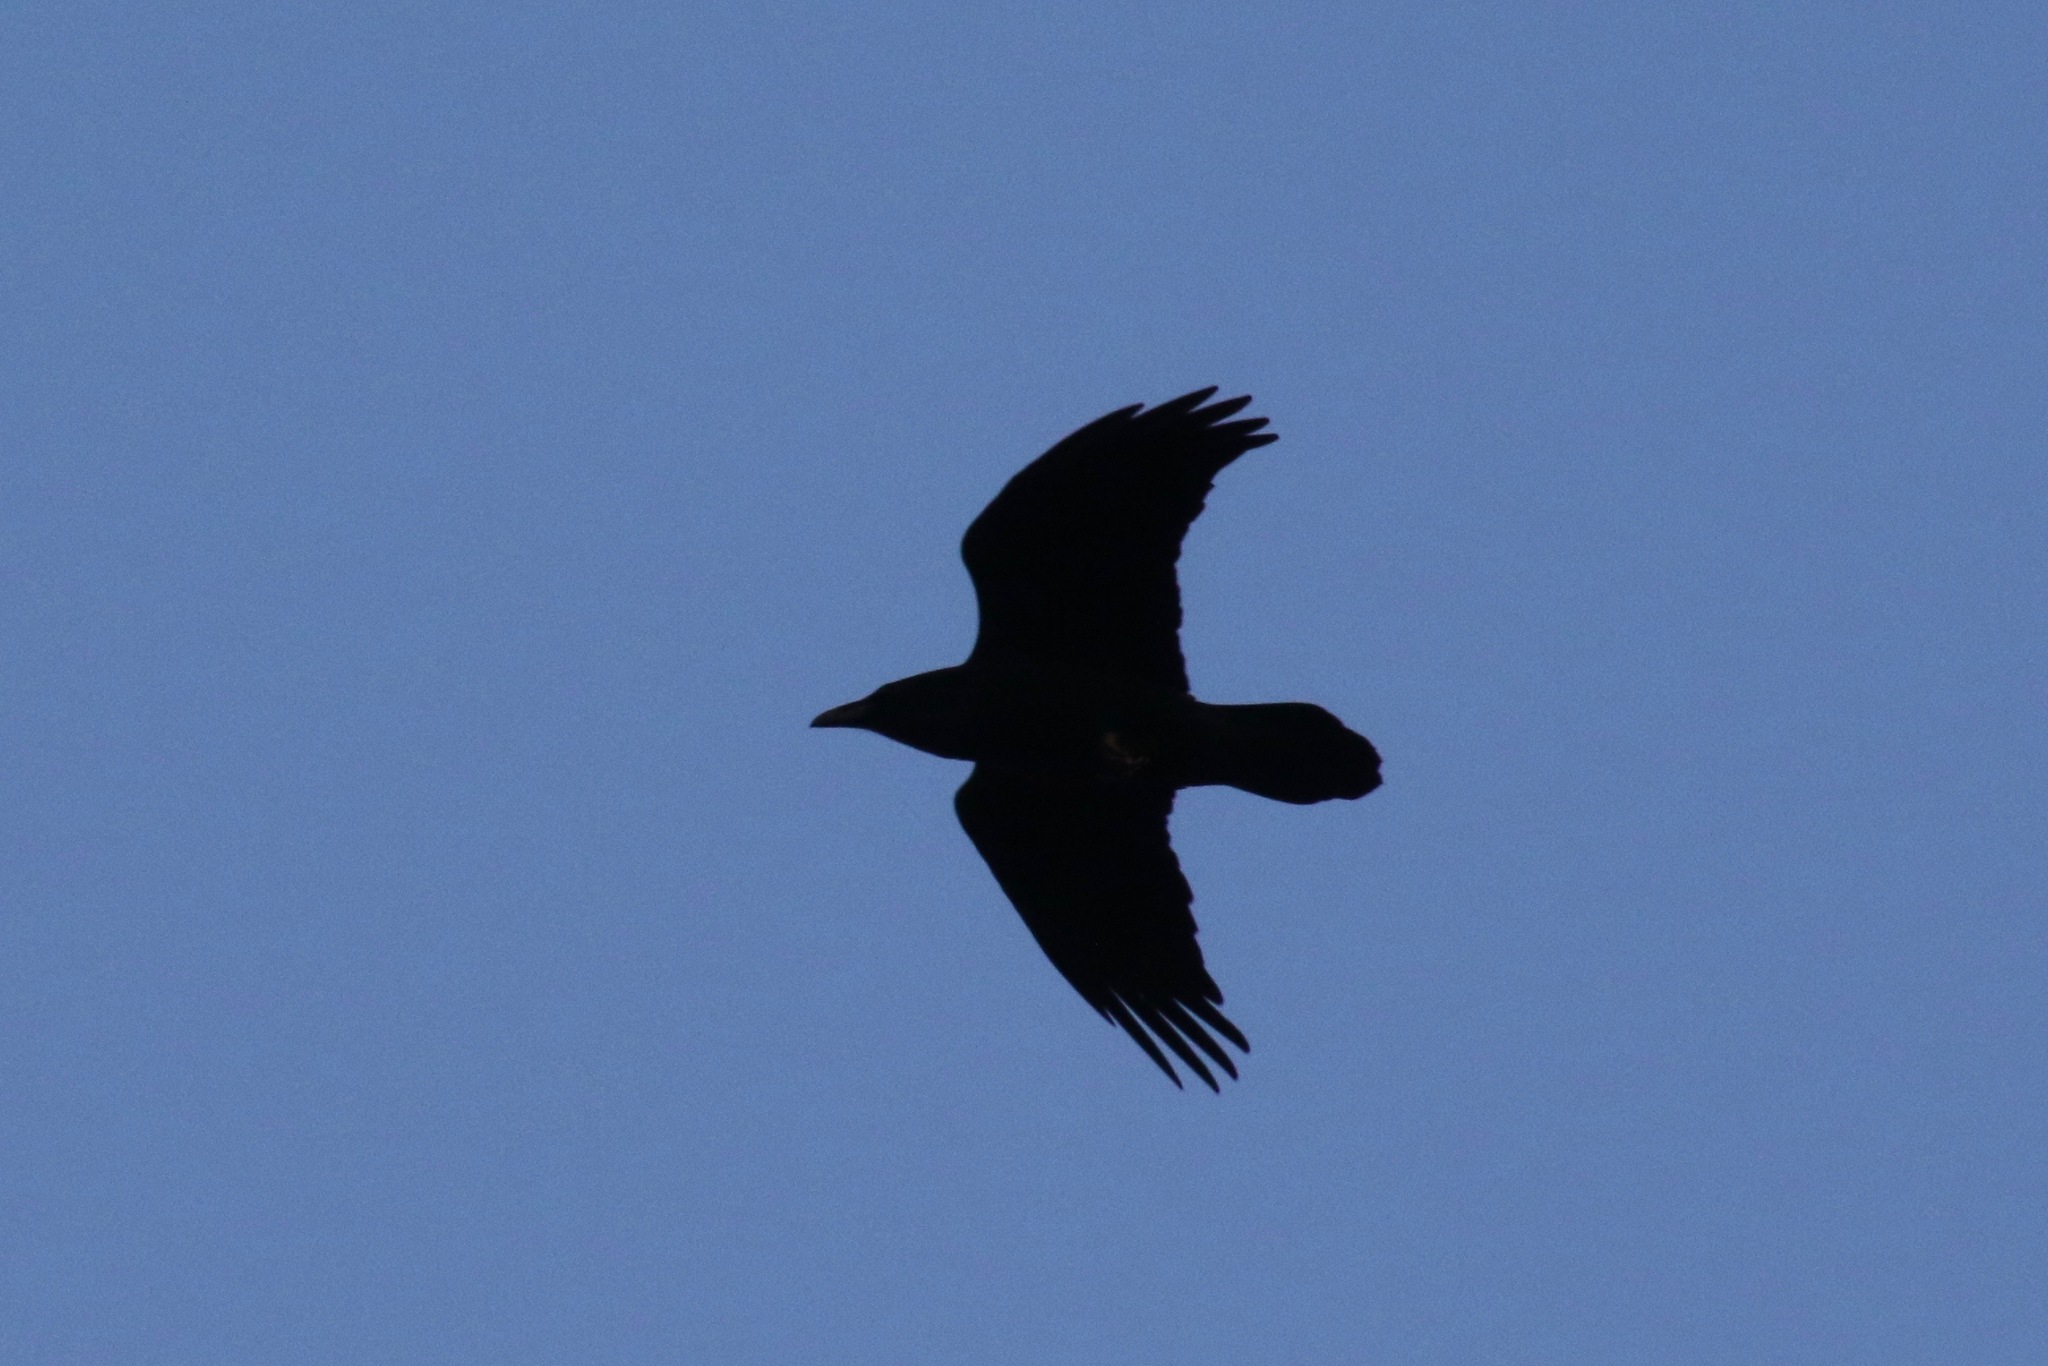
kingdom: Animalia
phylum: Chordata
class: Aves
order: Passeriformes
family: Corvidae
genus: Corvus
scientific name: Corvus corax
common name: Common raven
